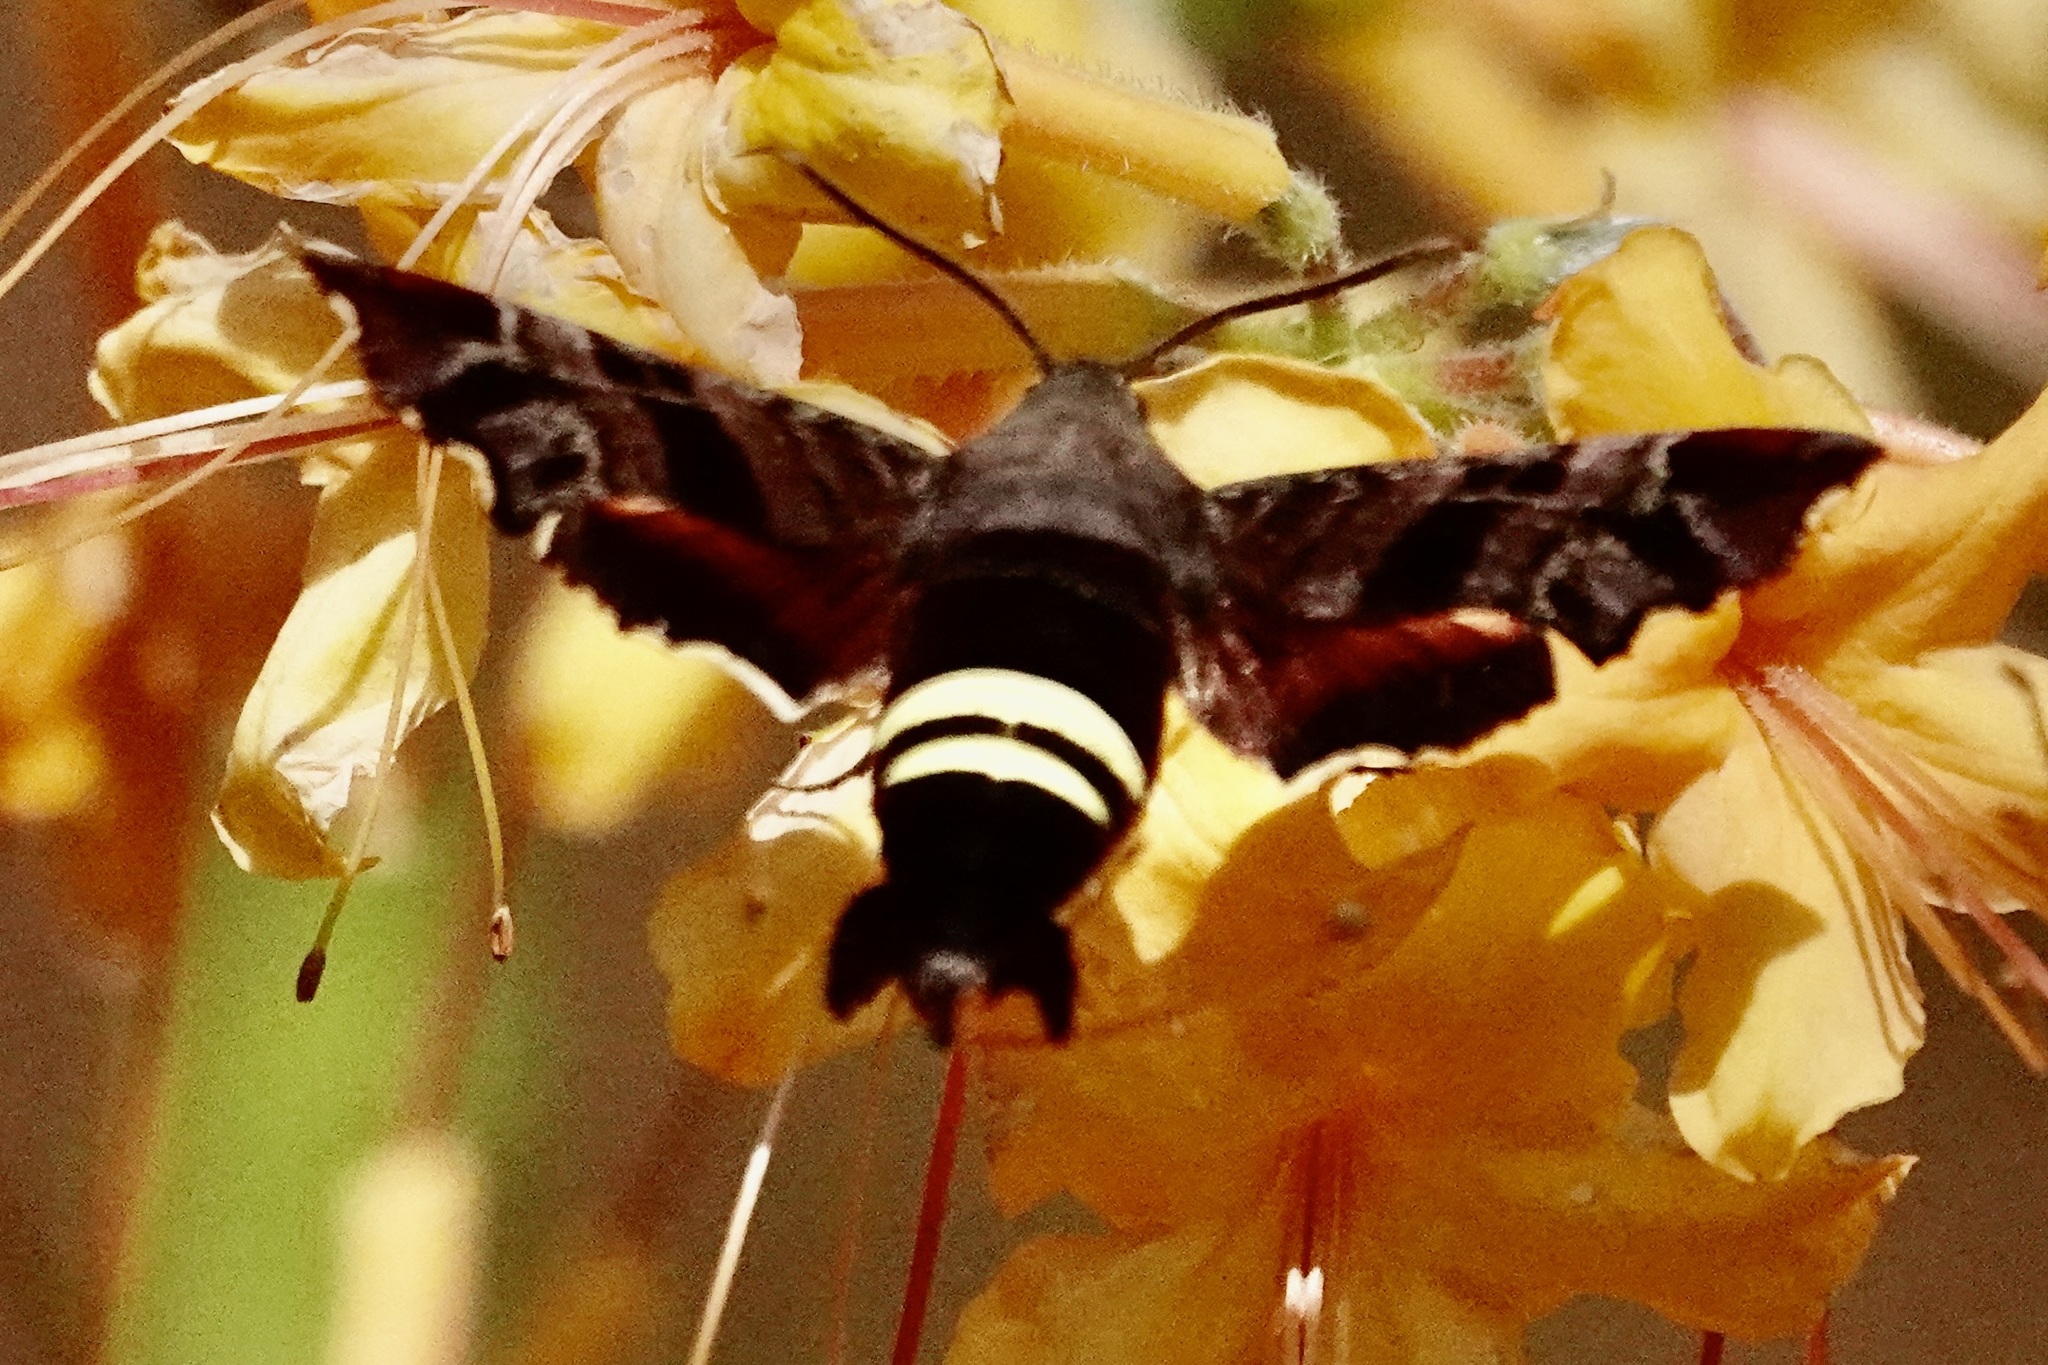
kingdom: Animalia
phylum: Arthropoda
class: Insecta
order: Lepidoptera
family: Sphingidae
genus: Amphion
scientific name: Amphion floridensis
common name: Nessus sphinx
